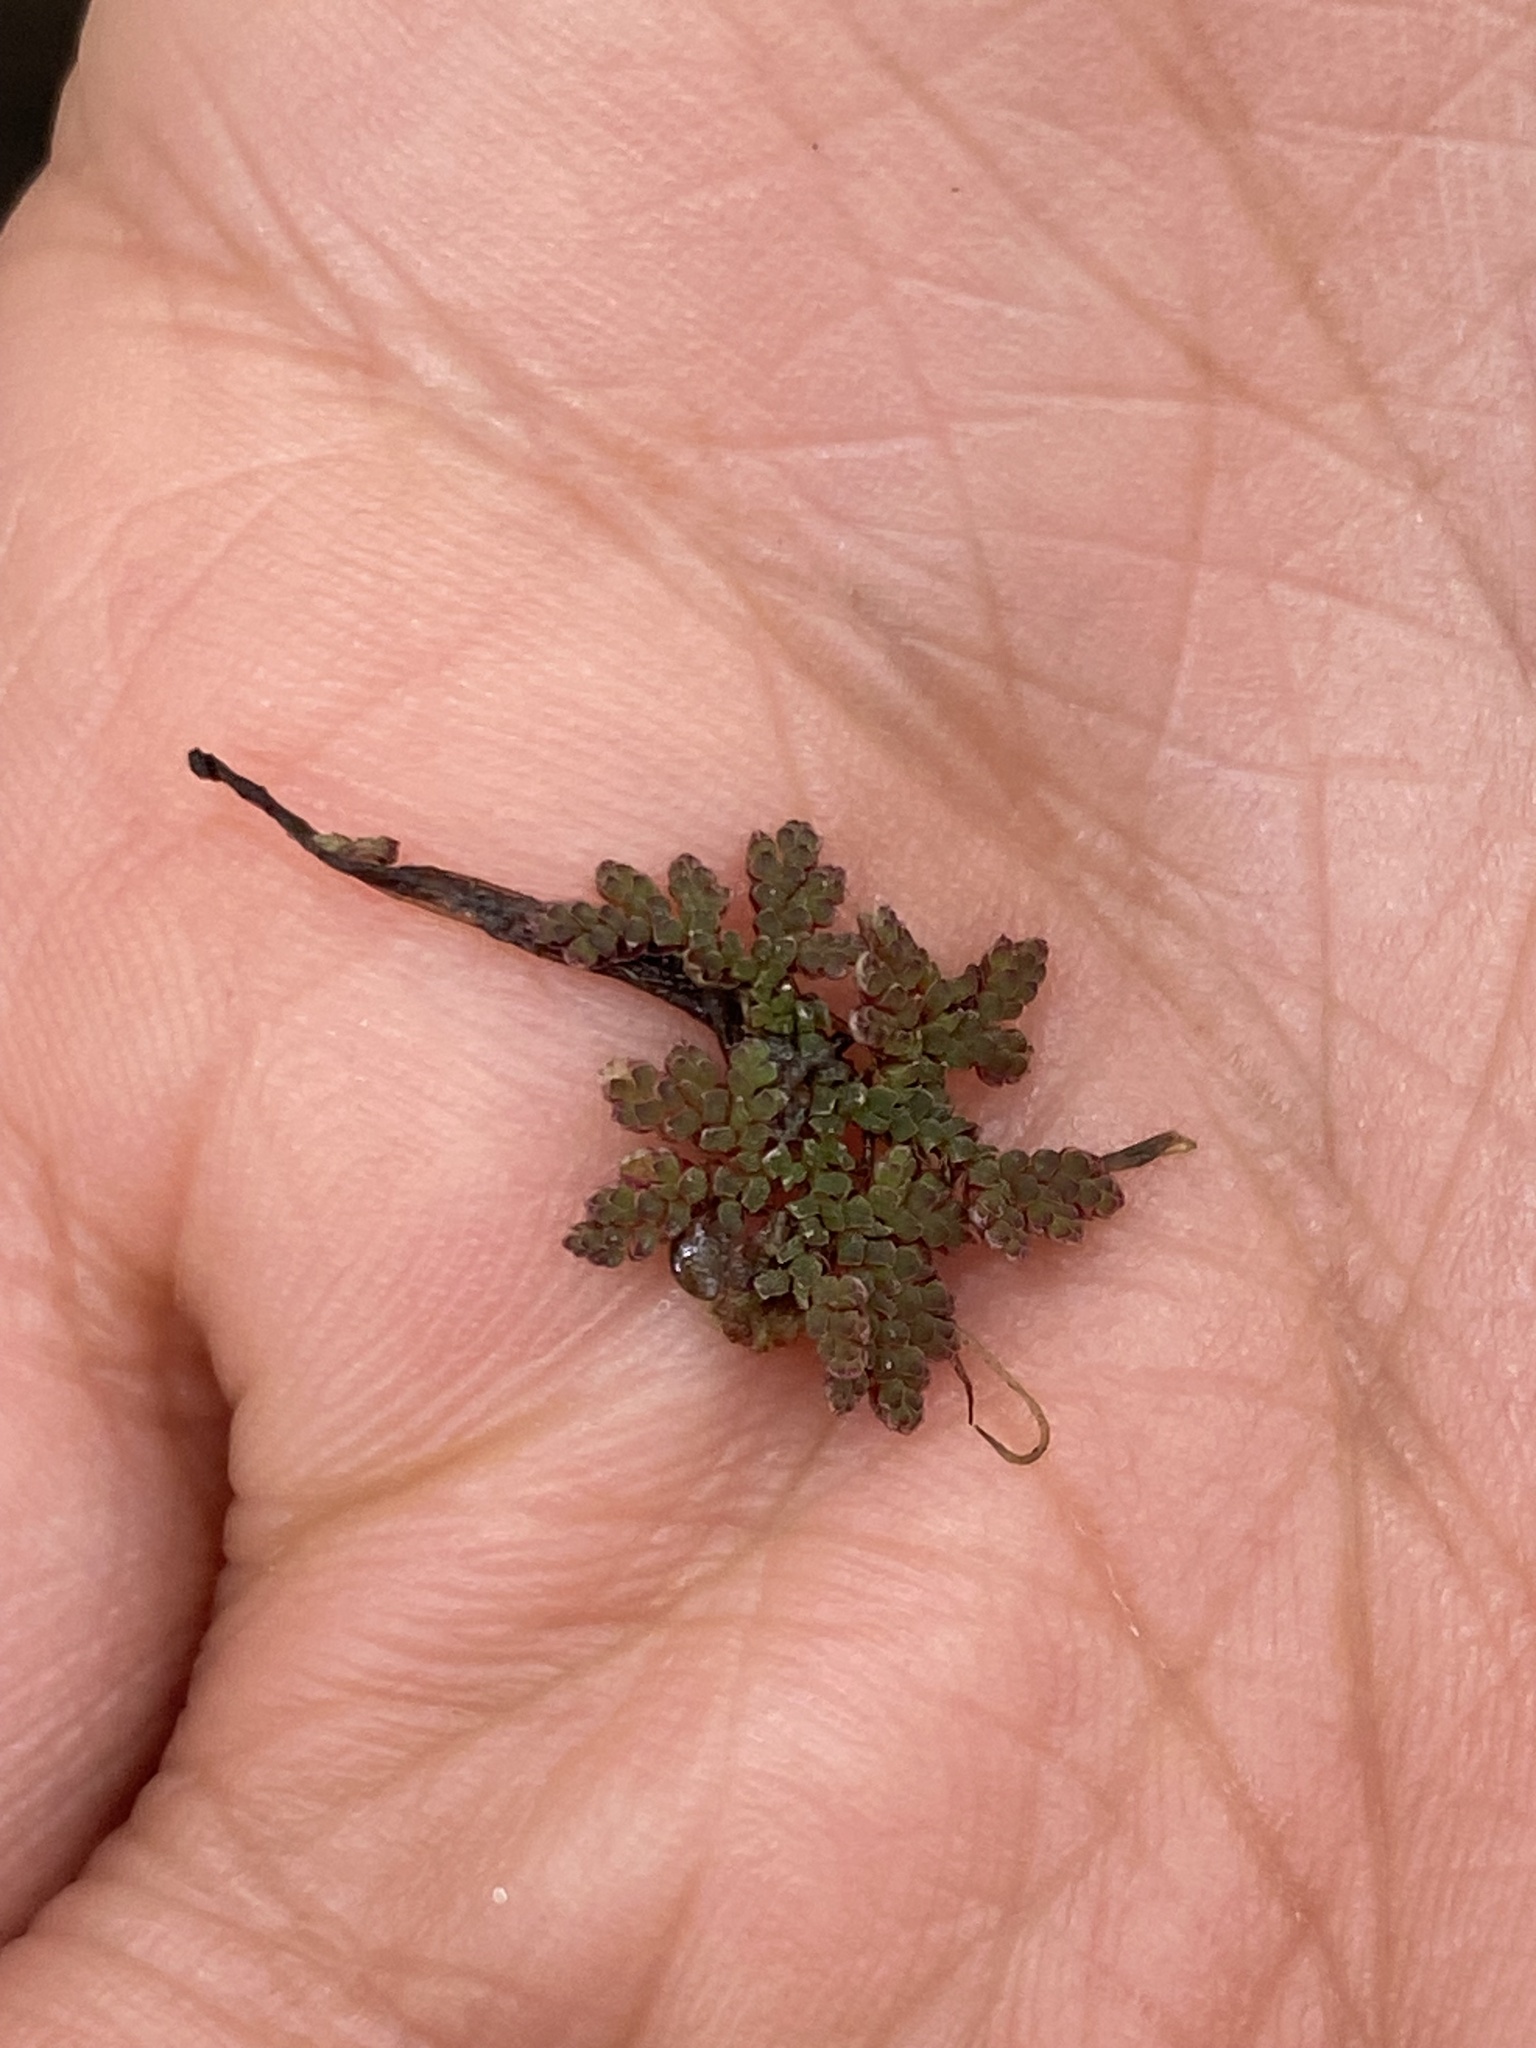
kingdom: Plantae
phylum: Tracheophyta
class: Polypodiopsida
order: Salviniales
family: Salviniaceae
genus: Azolla
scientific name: Azolla caroliniana
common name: Carolina mosquitofern
